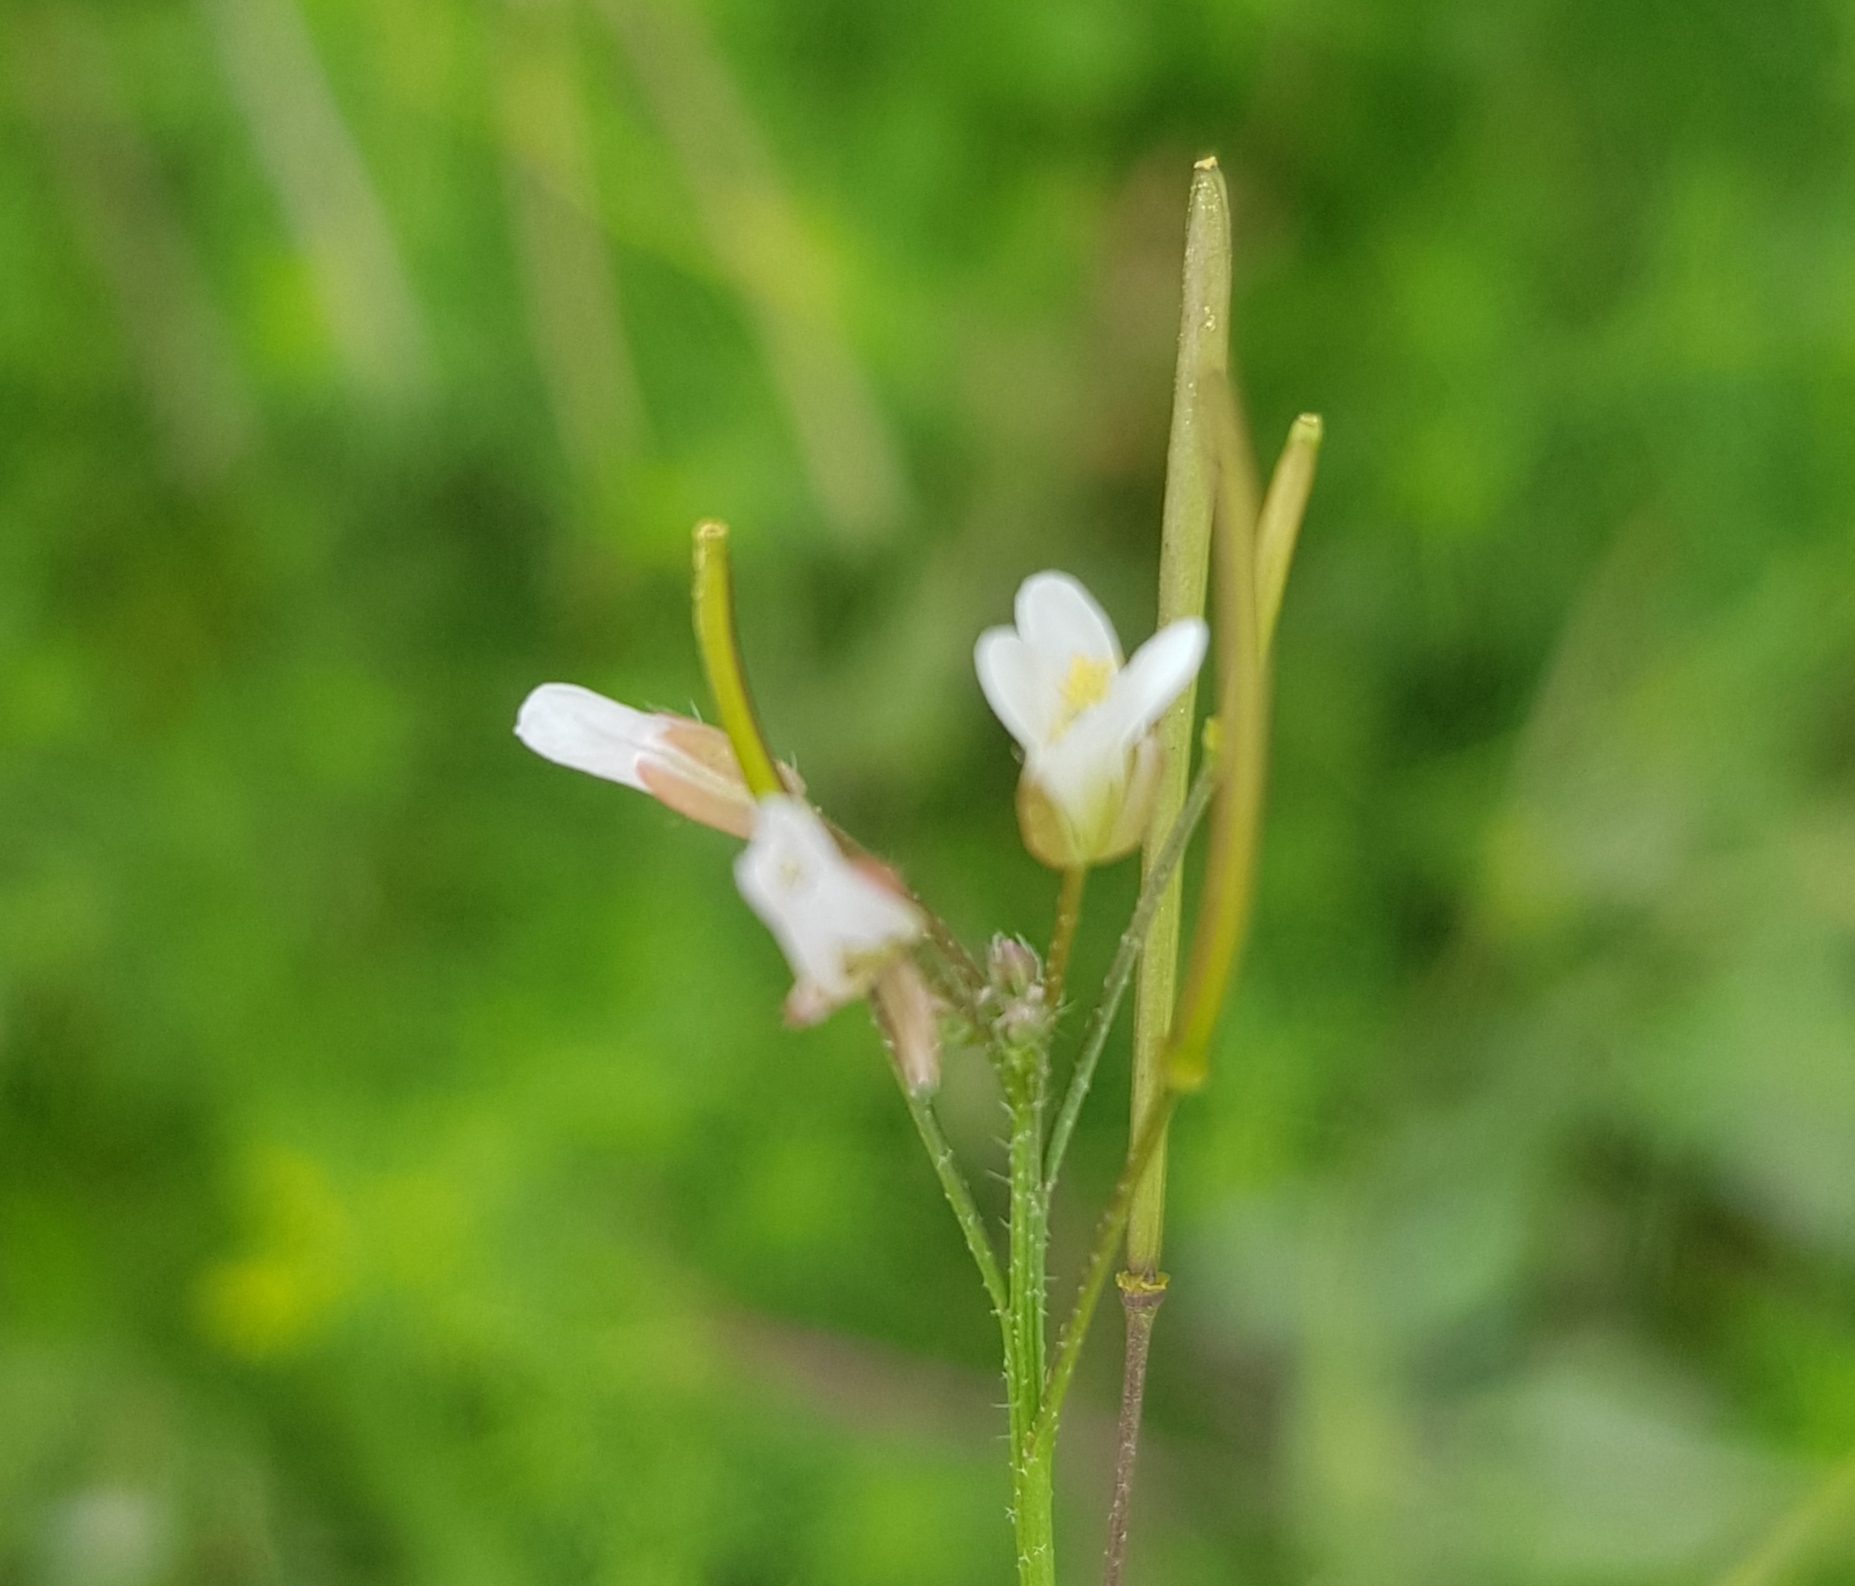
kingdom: Plantae
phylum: Tracheophyta
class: Magnoliopsida
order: Brassicales
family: Brassicaceae
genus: Catolobus
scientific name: Catolobus pendulus
